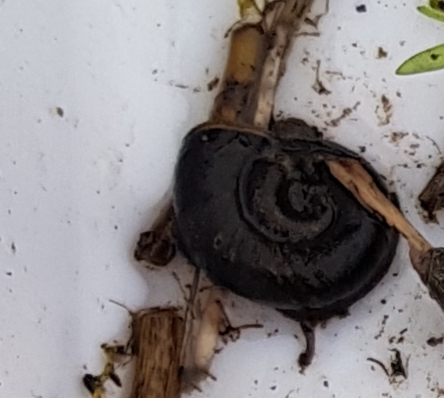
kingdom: Animalia
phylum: Mollusca
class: Gastropoda
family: Planorbidae
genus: Planorbarius
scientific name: Planorbarius corneus
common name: Great ramshorn
